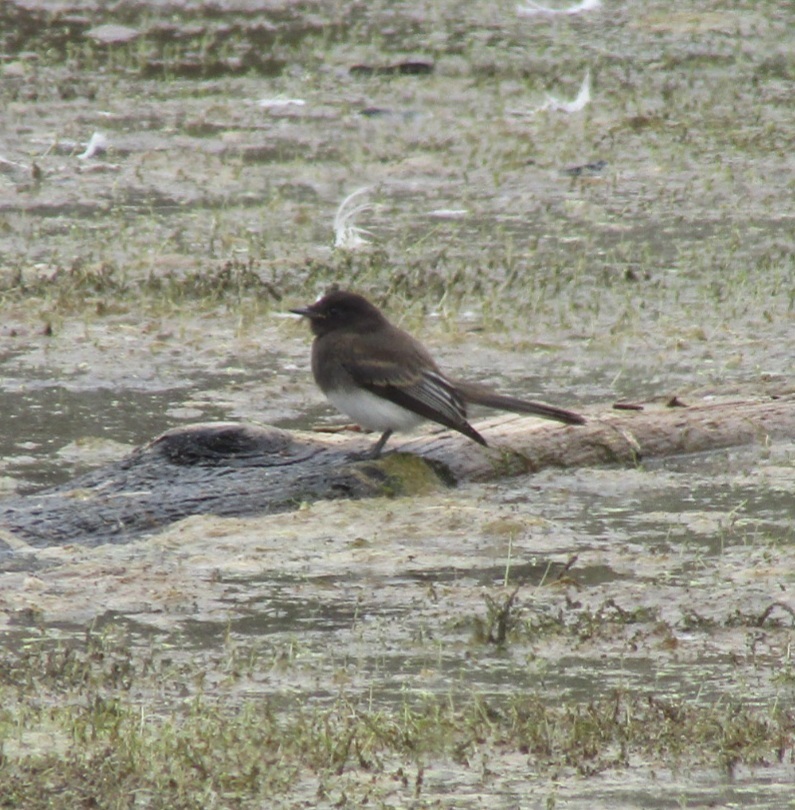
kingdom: Animalia
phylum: Chordata
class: Aves
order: Passeriformes
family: Tyrannidae
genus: Sayornis
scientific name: Sayornis nigricans
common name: Black phoebe
